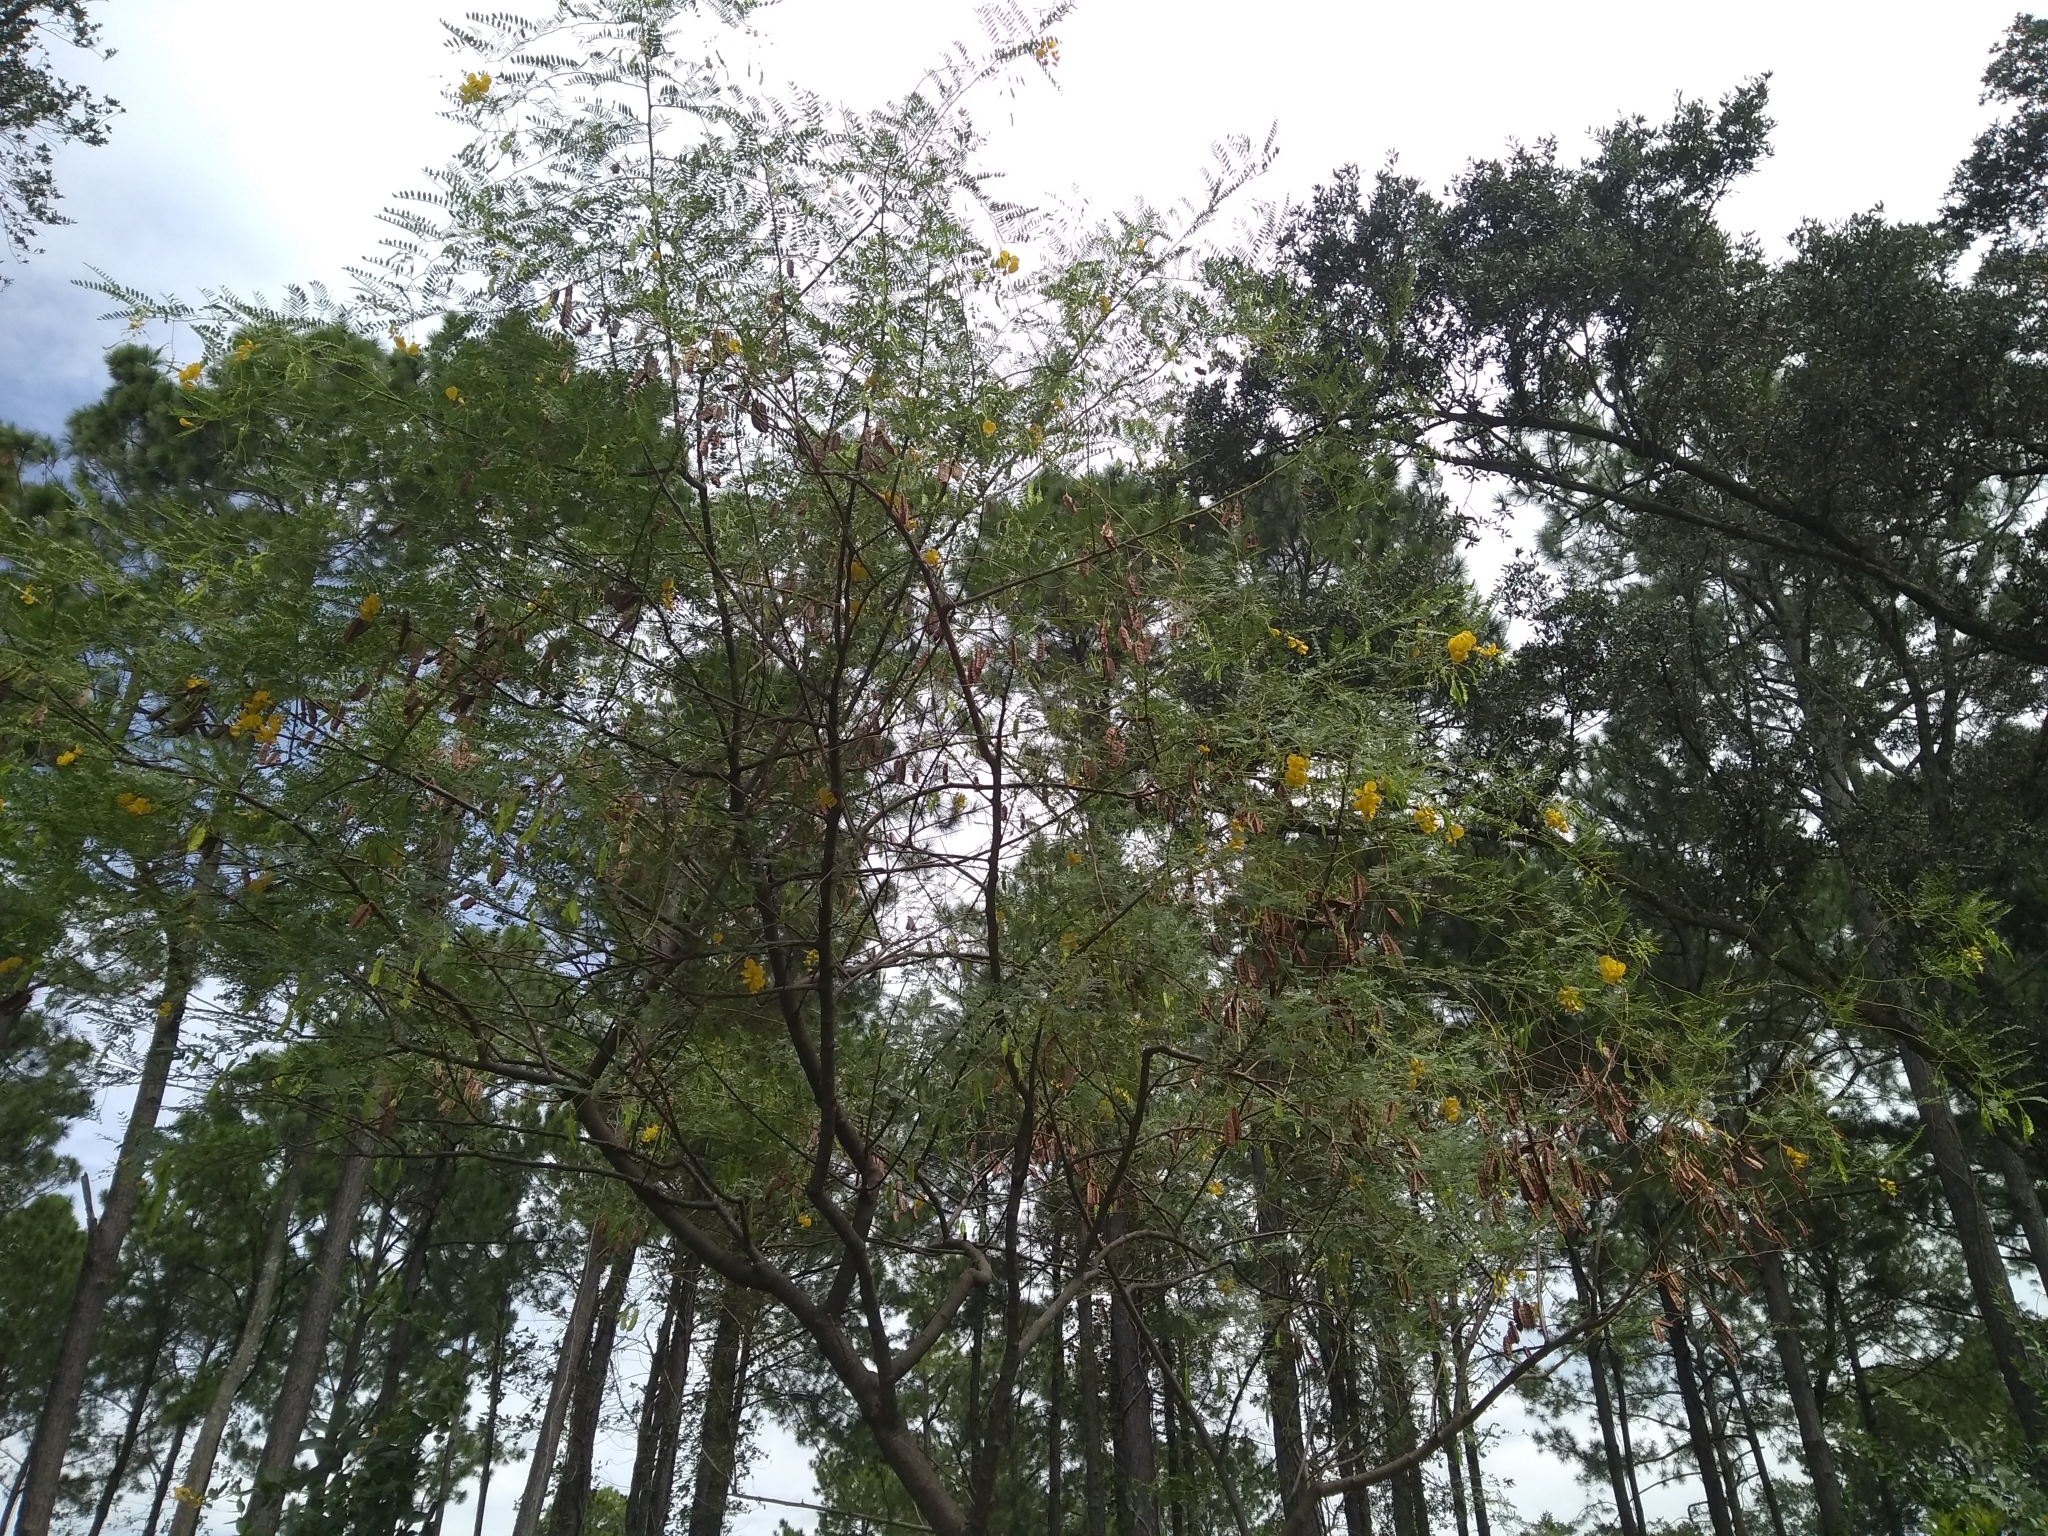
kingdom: Plantae
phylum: Tracheophyta
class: Magnoliopsida
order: Fabales
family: Fabaceae
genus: Sesbania
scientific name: Sesbania drummondii
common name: Poison-bean
